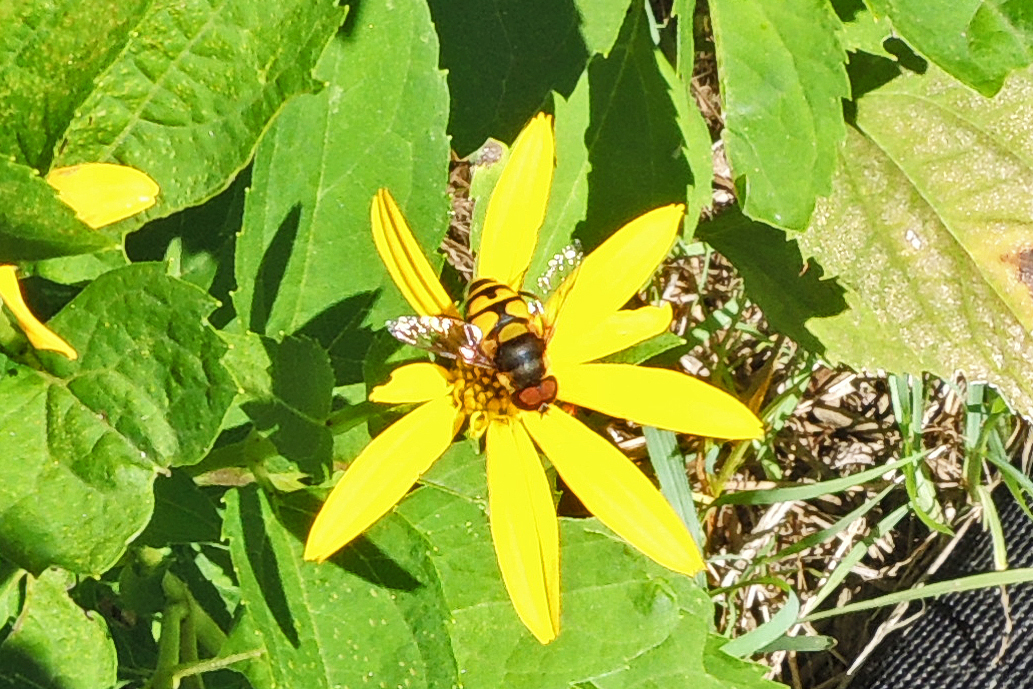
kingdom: Animalia
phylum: Arthropoda
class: Insecta
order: Diptera
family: Syrphidae
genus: Eristalis
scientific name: Eristalis transversa
